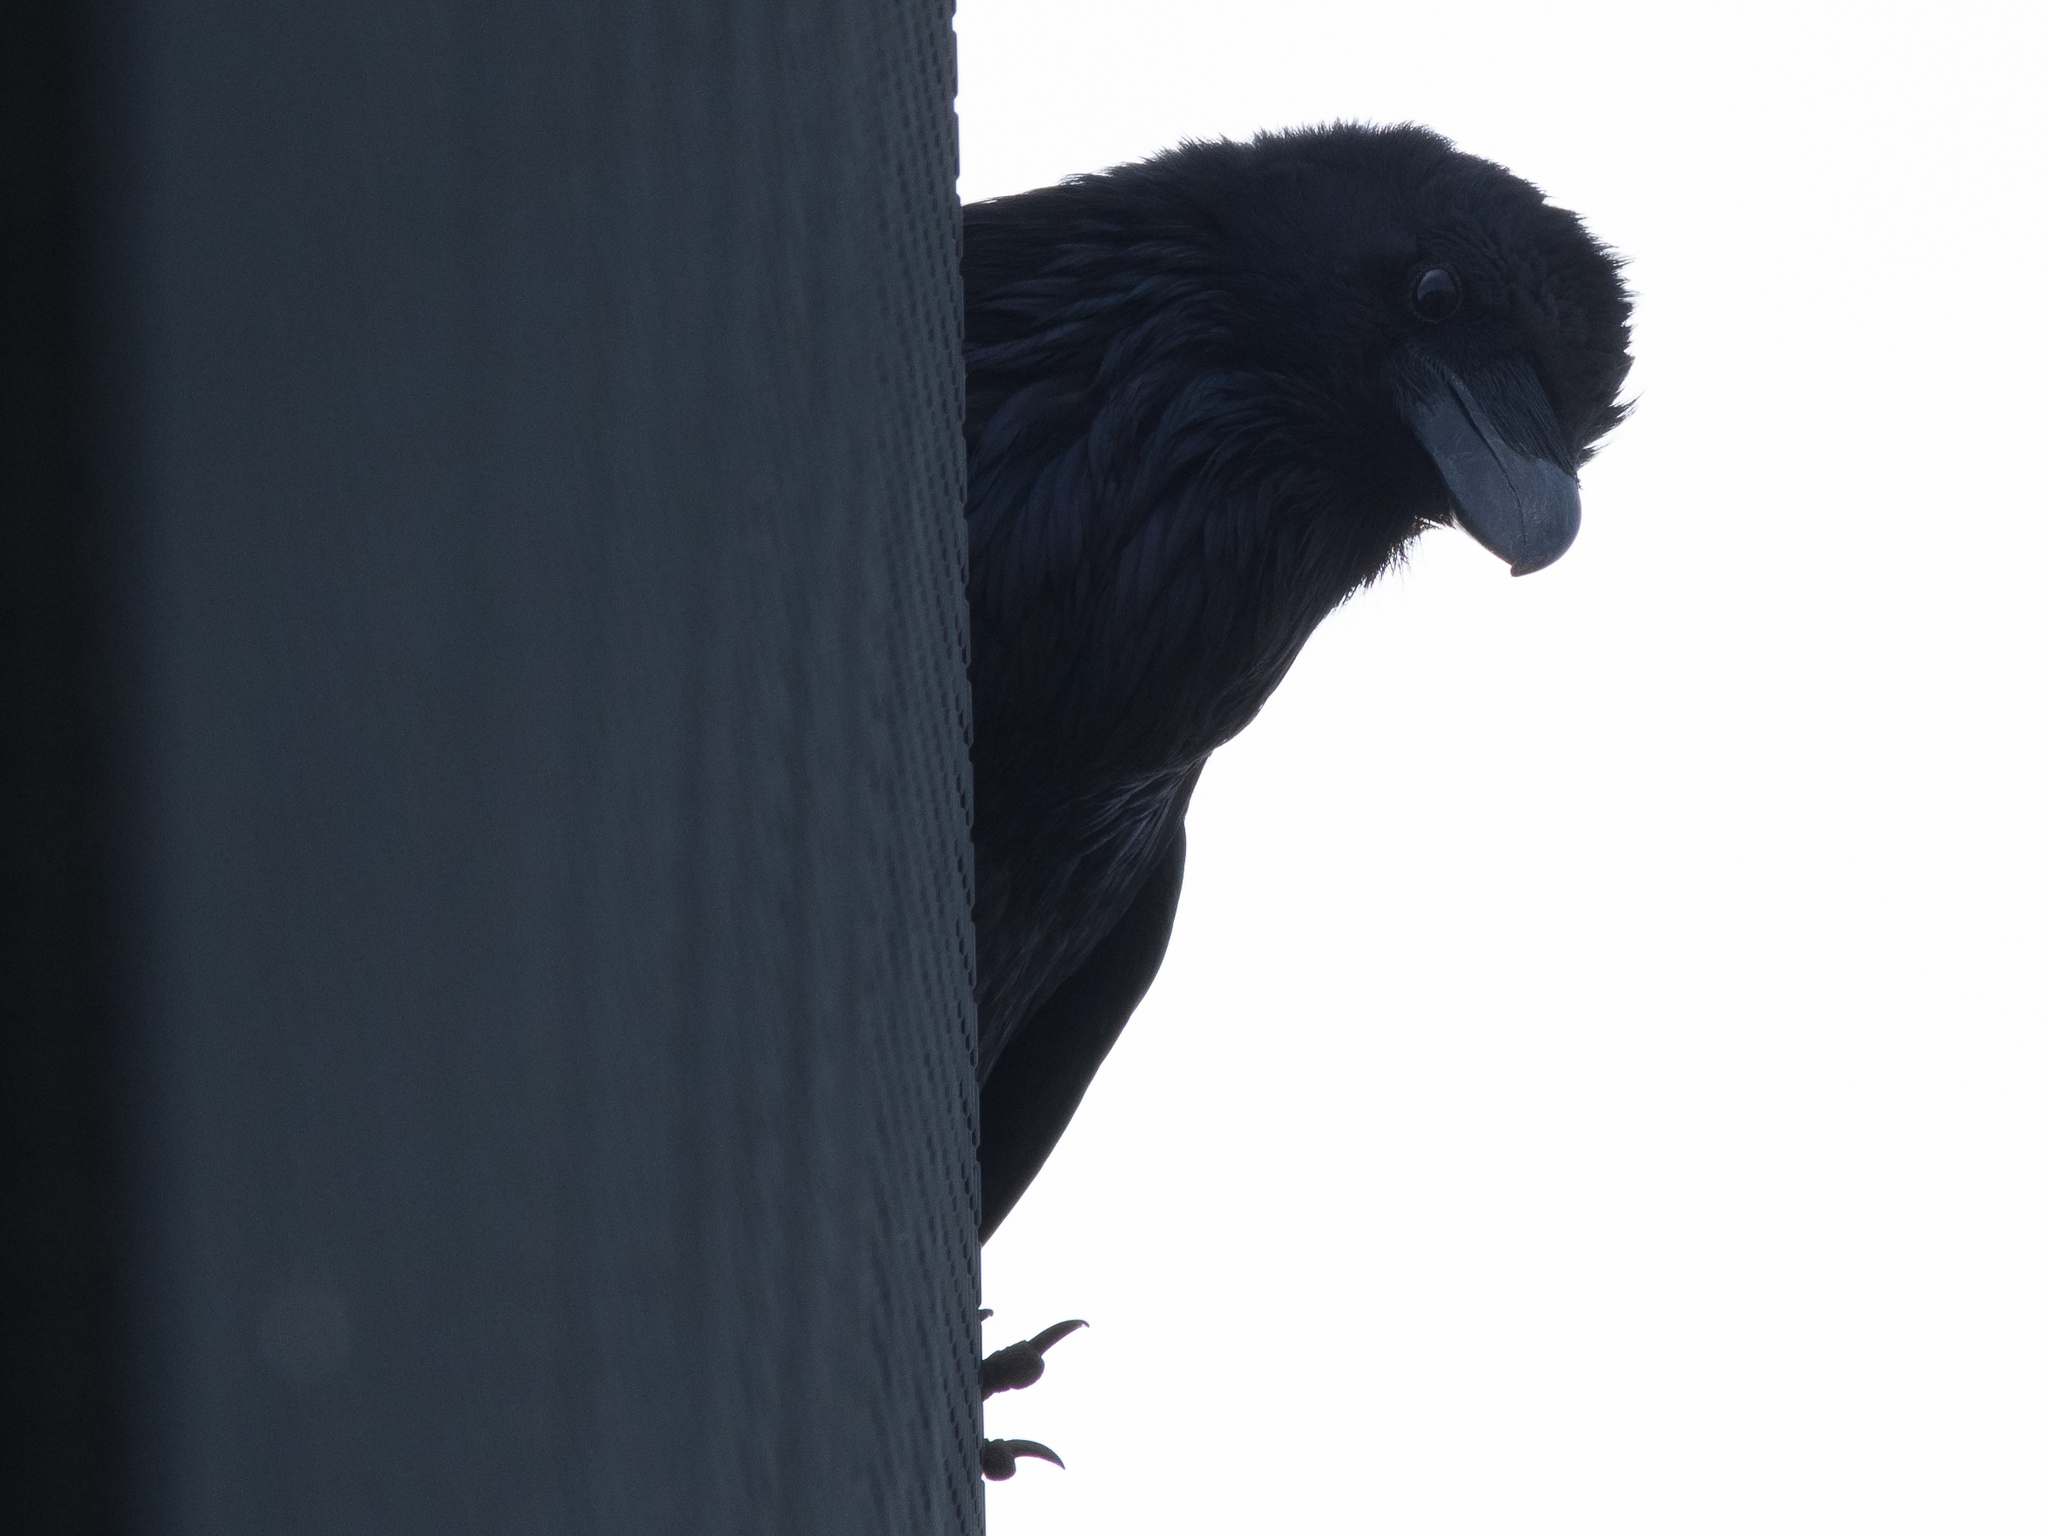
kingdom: Animalia
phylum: Chordata
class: Aves
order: Passeriformes
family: Corvidae
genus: Corvus
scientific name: Corvus corax
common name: Common raven
